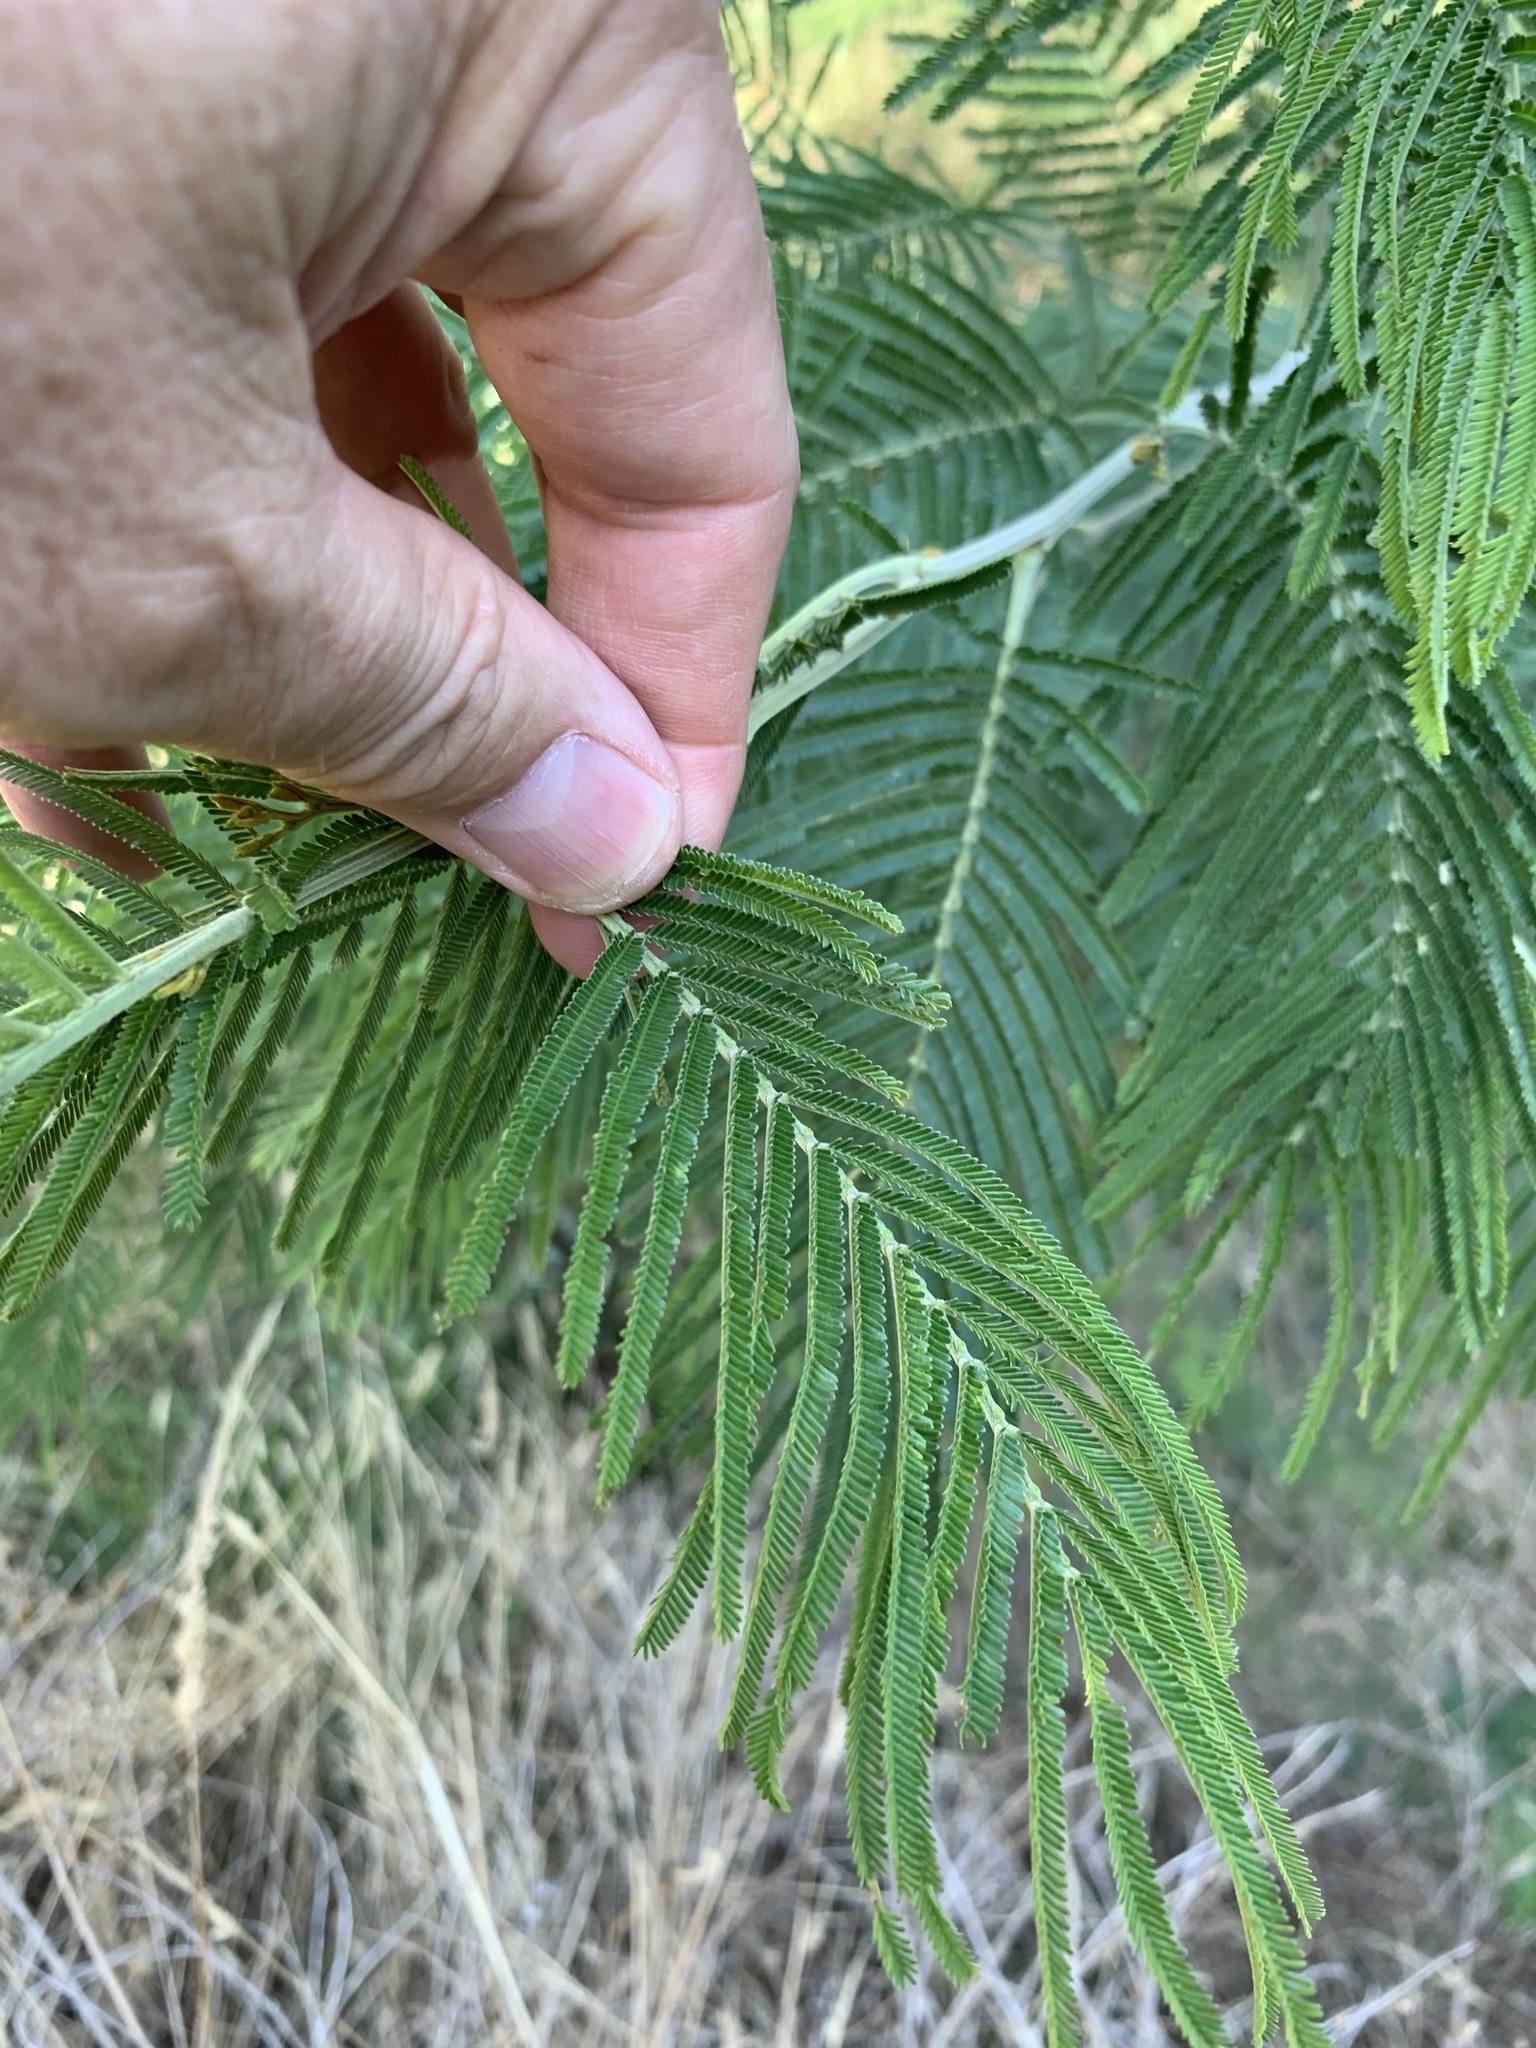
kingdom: Plantae
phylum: Tracheophyta
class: Magnoliopsida
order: Fabales
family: Fabaceae
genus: Acacia
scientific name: Acacia mearnsii
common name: Black wattle
